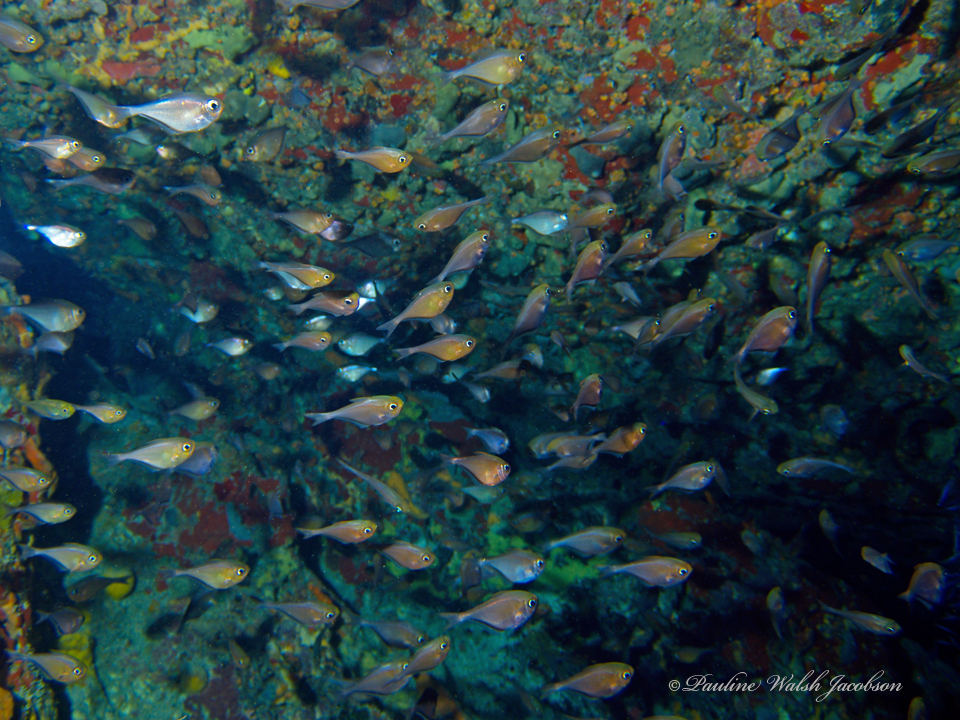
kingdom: Animalia
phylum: Chordata
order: Perciformes
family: Pempheridae
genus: Pempheris
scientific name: Pempheris schomburgkii
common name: Glassy sweeper
